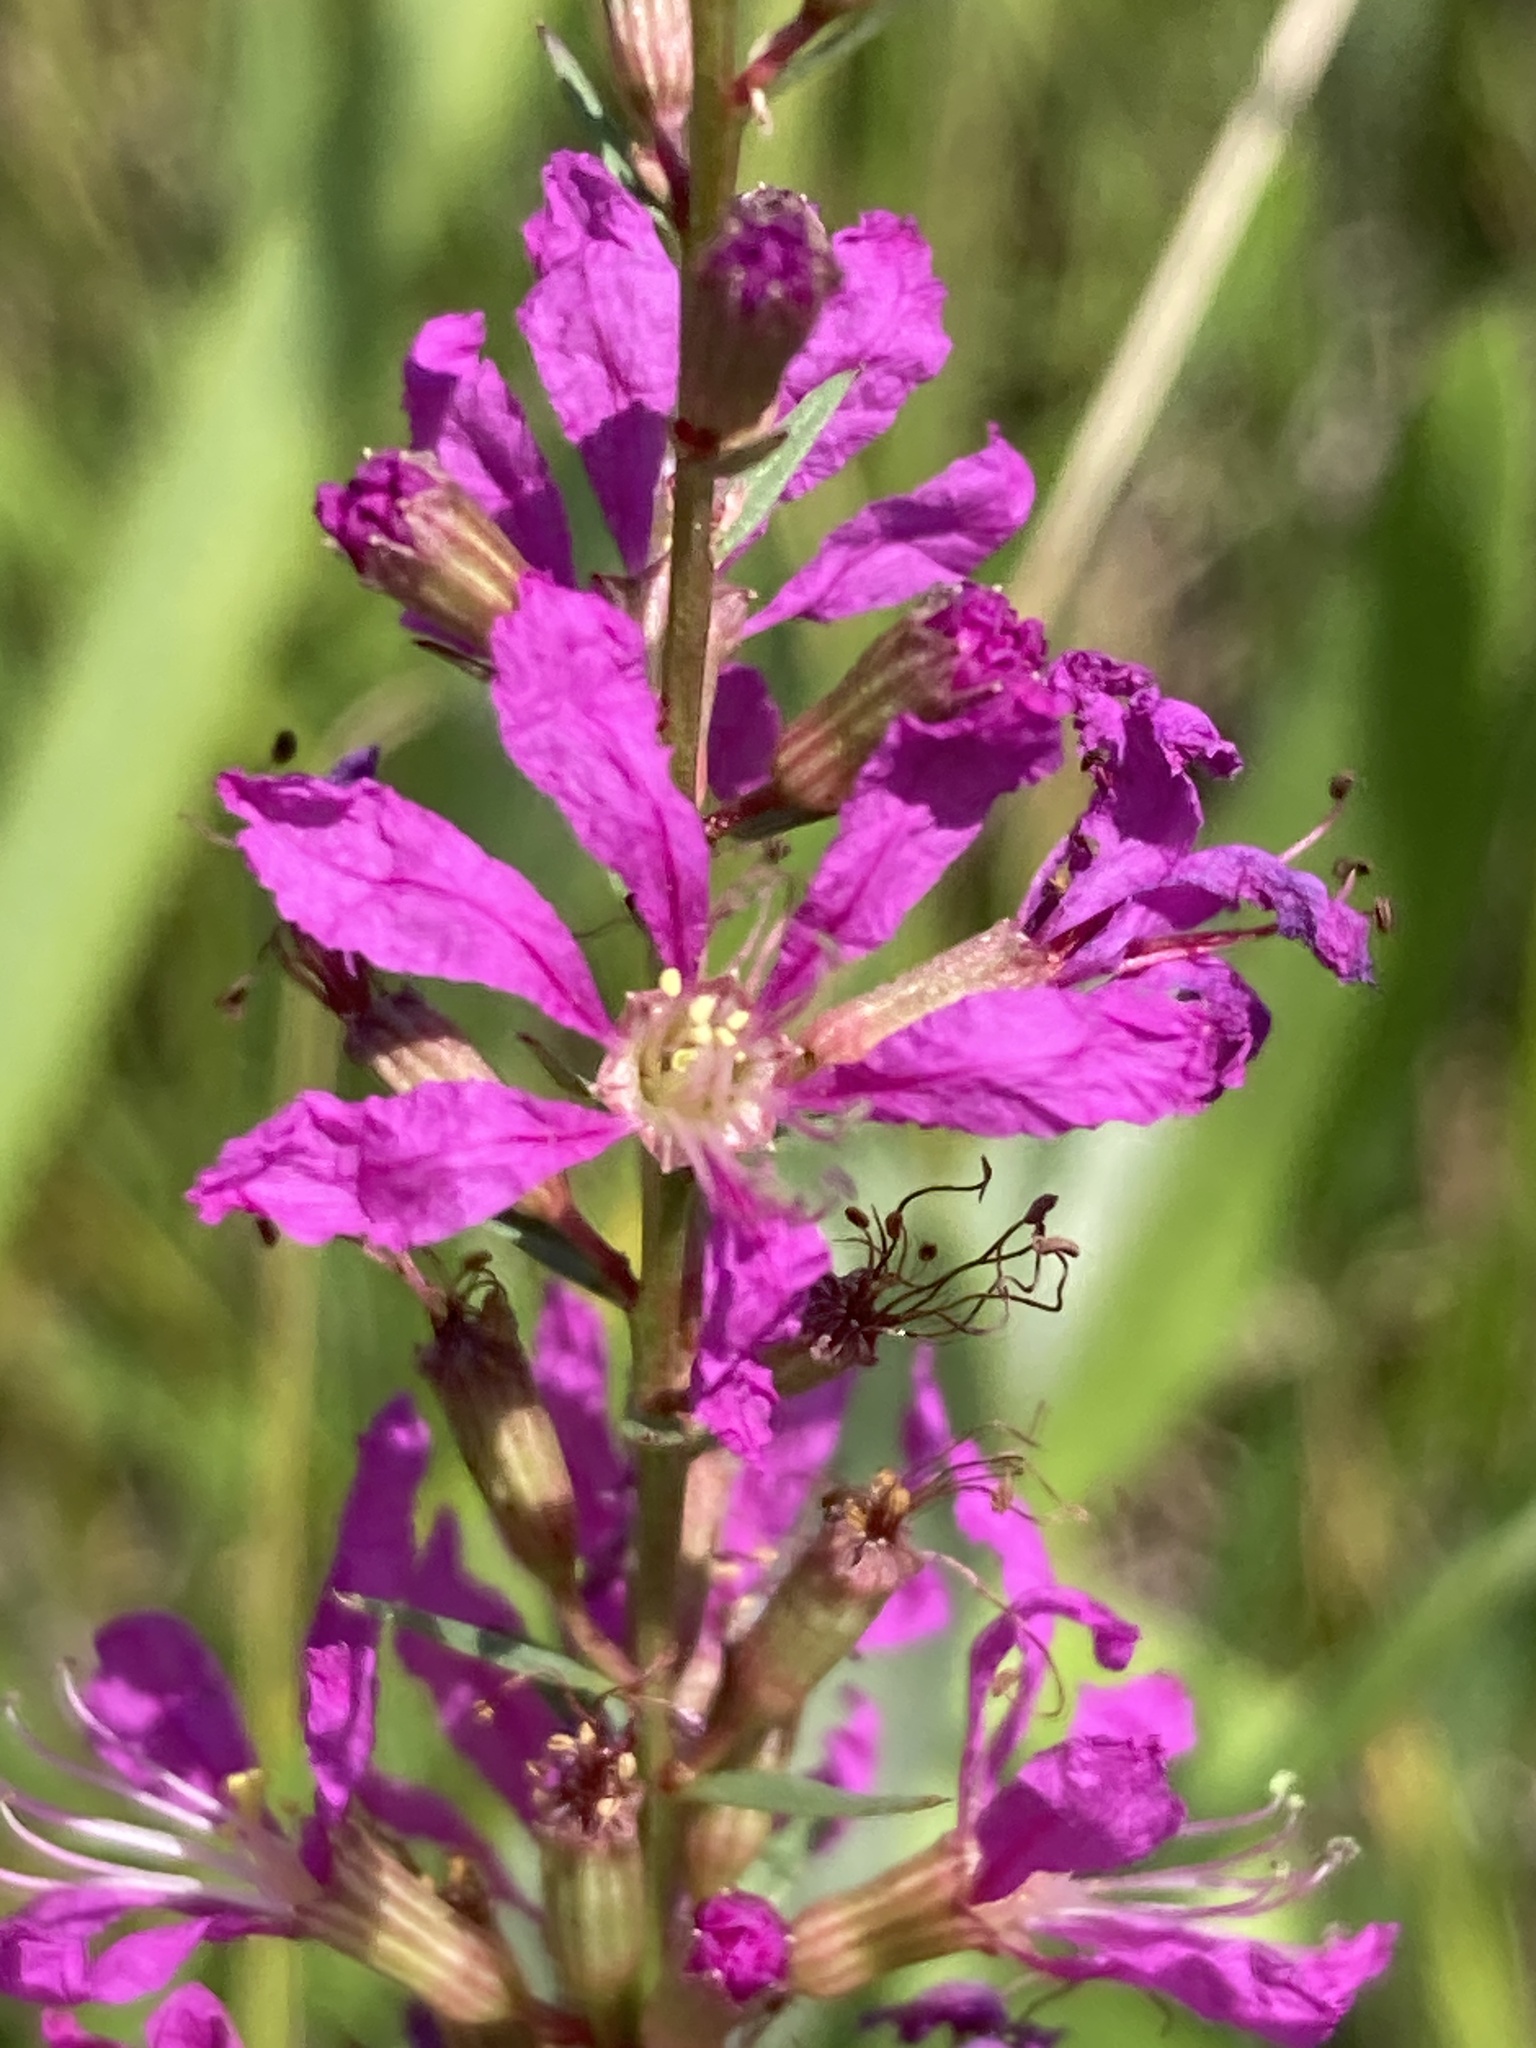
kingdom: Plantae
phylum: Tracheophyta
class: Magnoliopsida
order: Myrtales
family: Lythraceae
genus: Lythrum
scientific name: Lythrum virgatum
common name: European wand loosestrife
